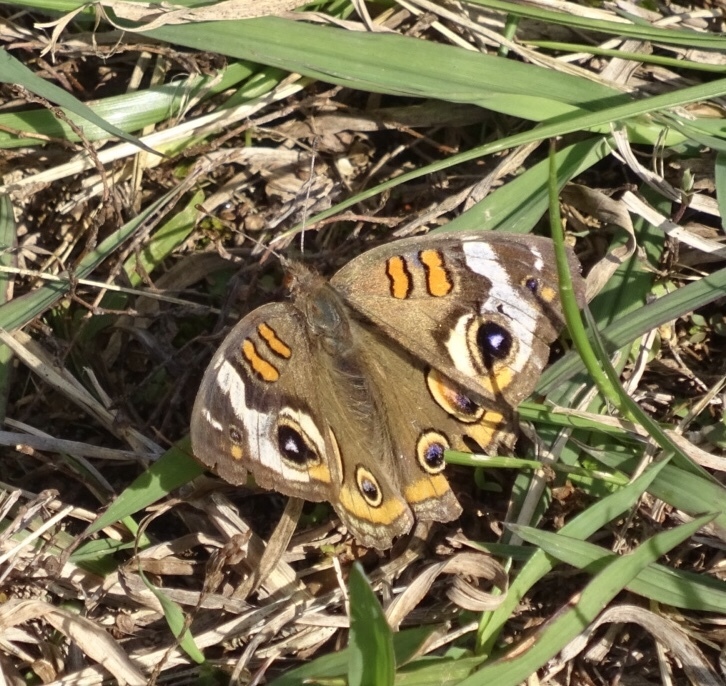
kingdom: Animalia
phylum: Arthropoda
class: Insecta
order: Lepidoptera
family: Nymphalidae
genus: Junonia
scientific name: Junonia coenia
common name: Common buckeye
